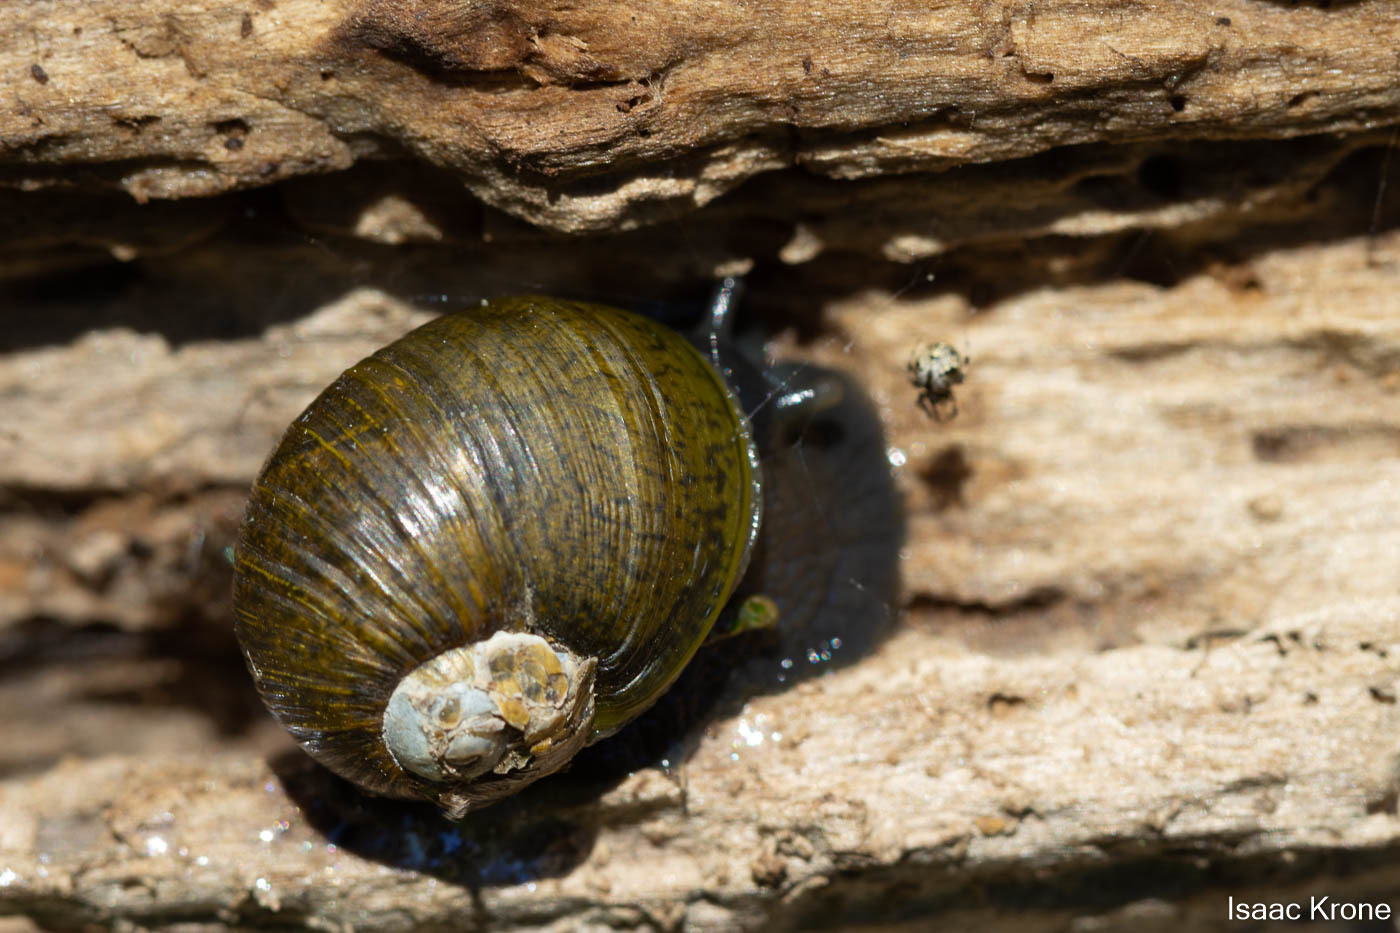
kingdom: Animalia
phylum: Mollusca
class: Gastropoda
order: Stylommatophora
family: Helicidae
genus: Cantareus
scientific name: Cantareus apertus
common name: Green gardensnail
